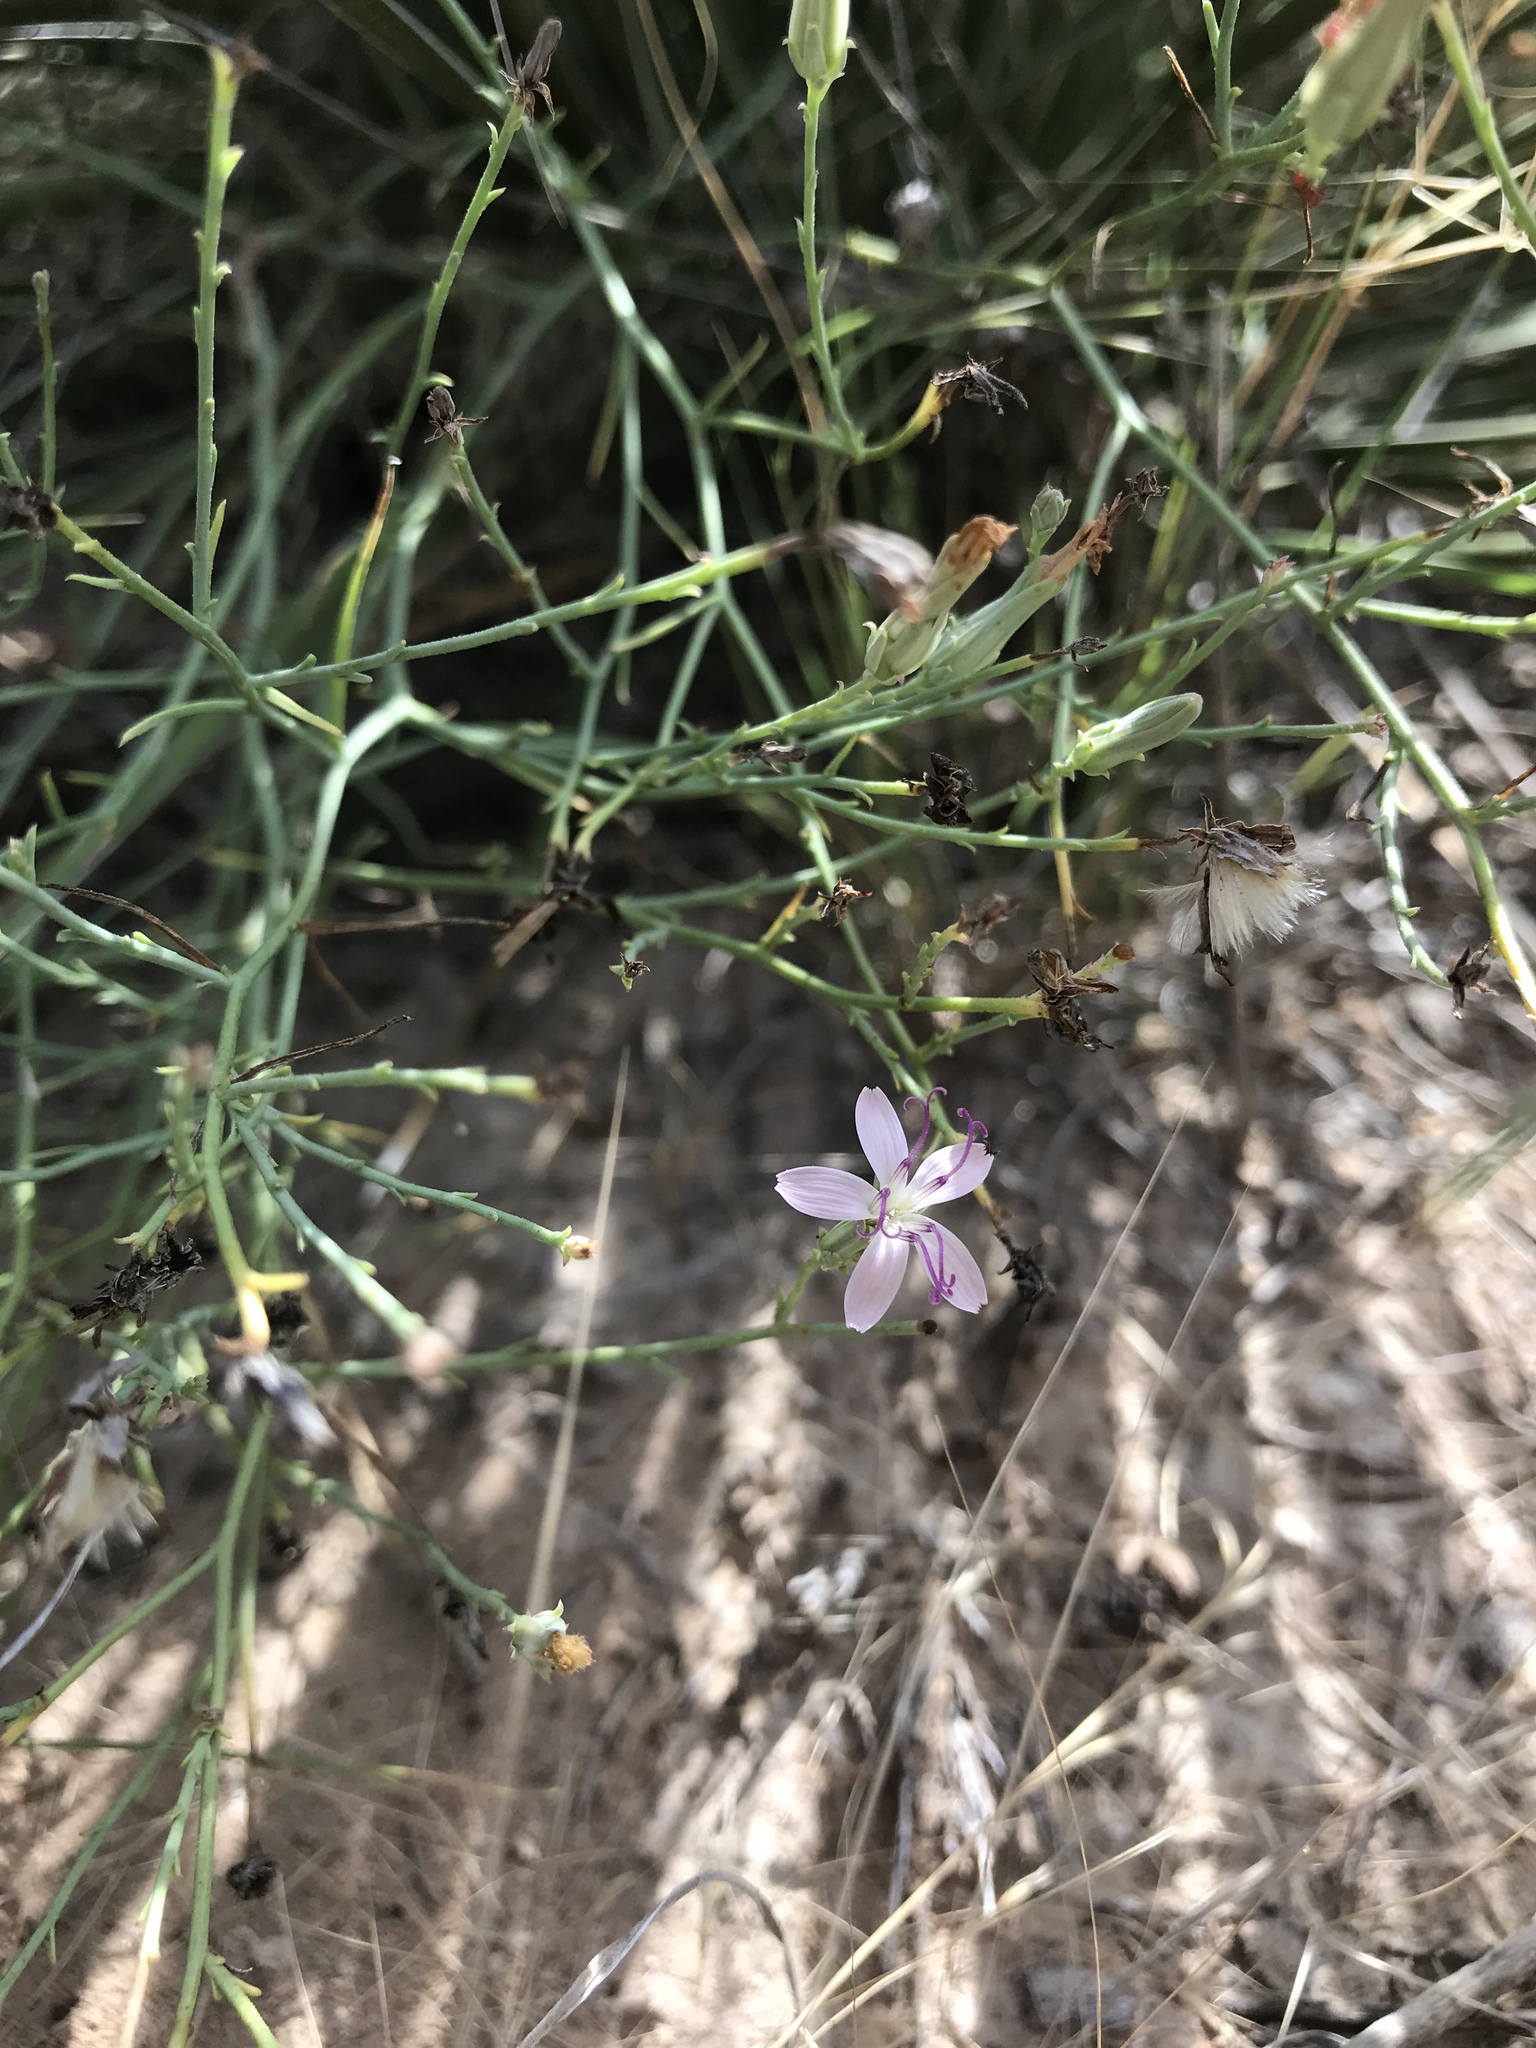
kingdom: Plantae
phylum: Tracheophyta
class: Magnoliopsida
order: Asterales
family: Asteraceae
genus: Stephanomeria
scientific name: Stephanomeria pauciflora
